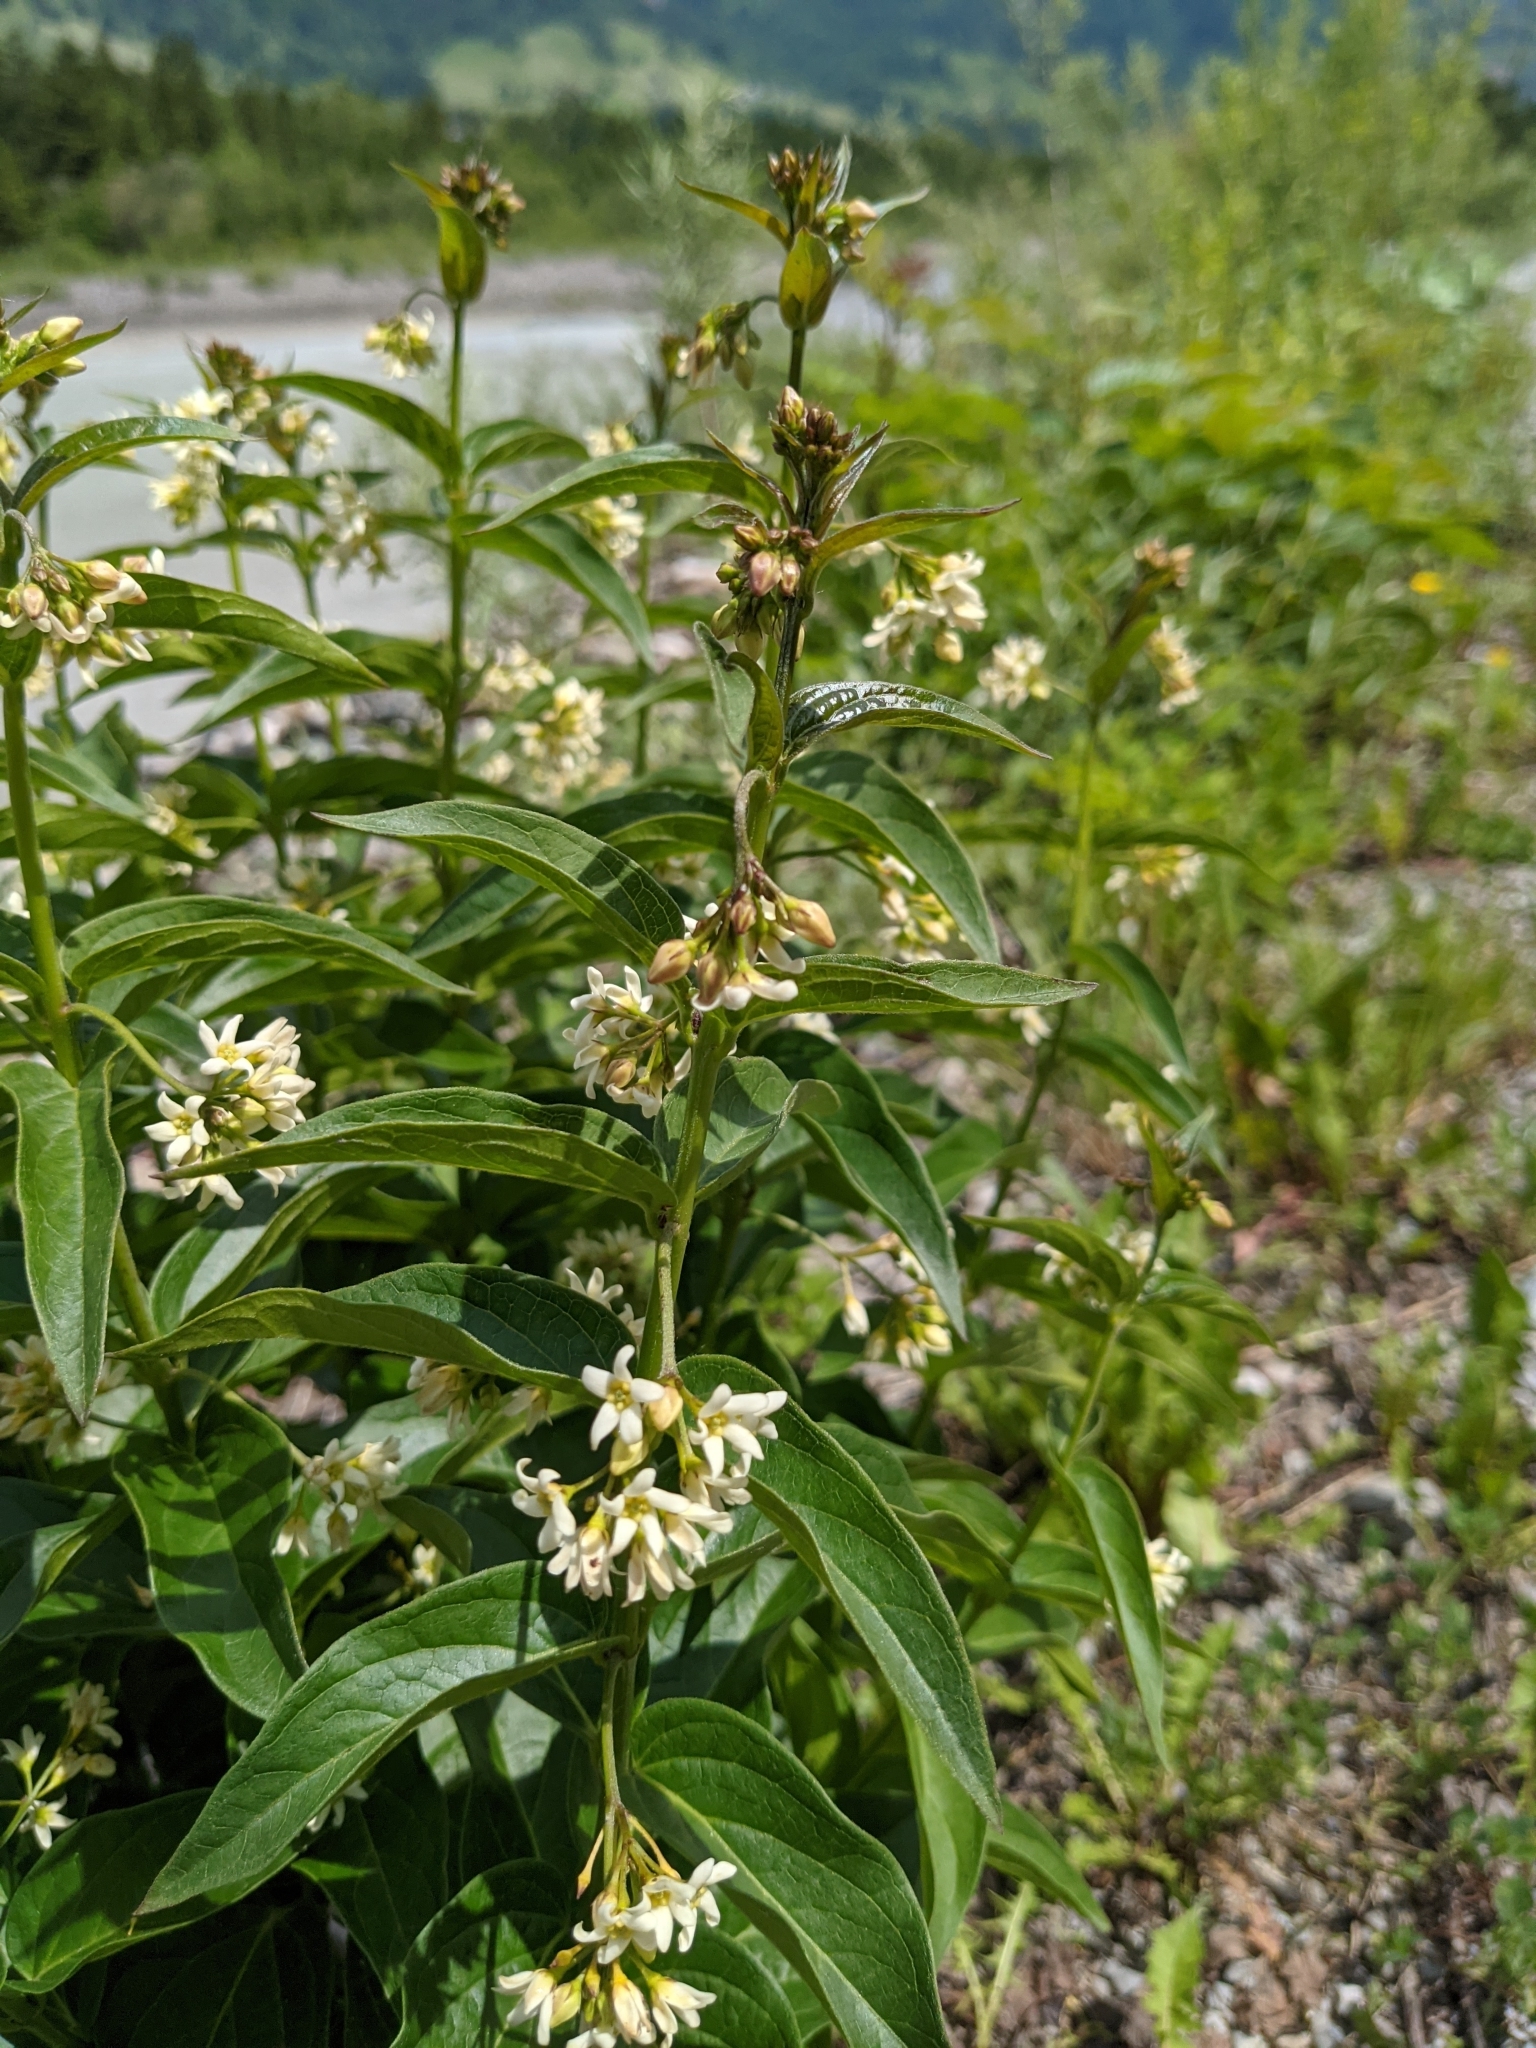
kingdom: Plantae
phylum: Tracheophyta
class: Magnoliopsida
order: Gentianales
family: Apocynaceae
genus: Vincetoxicum
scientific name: Vincetoxicum hirundinaria
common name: White swallowwort
